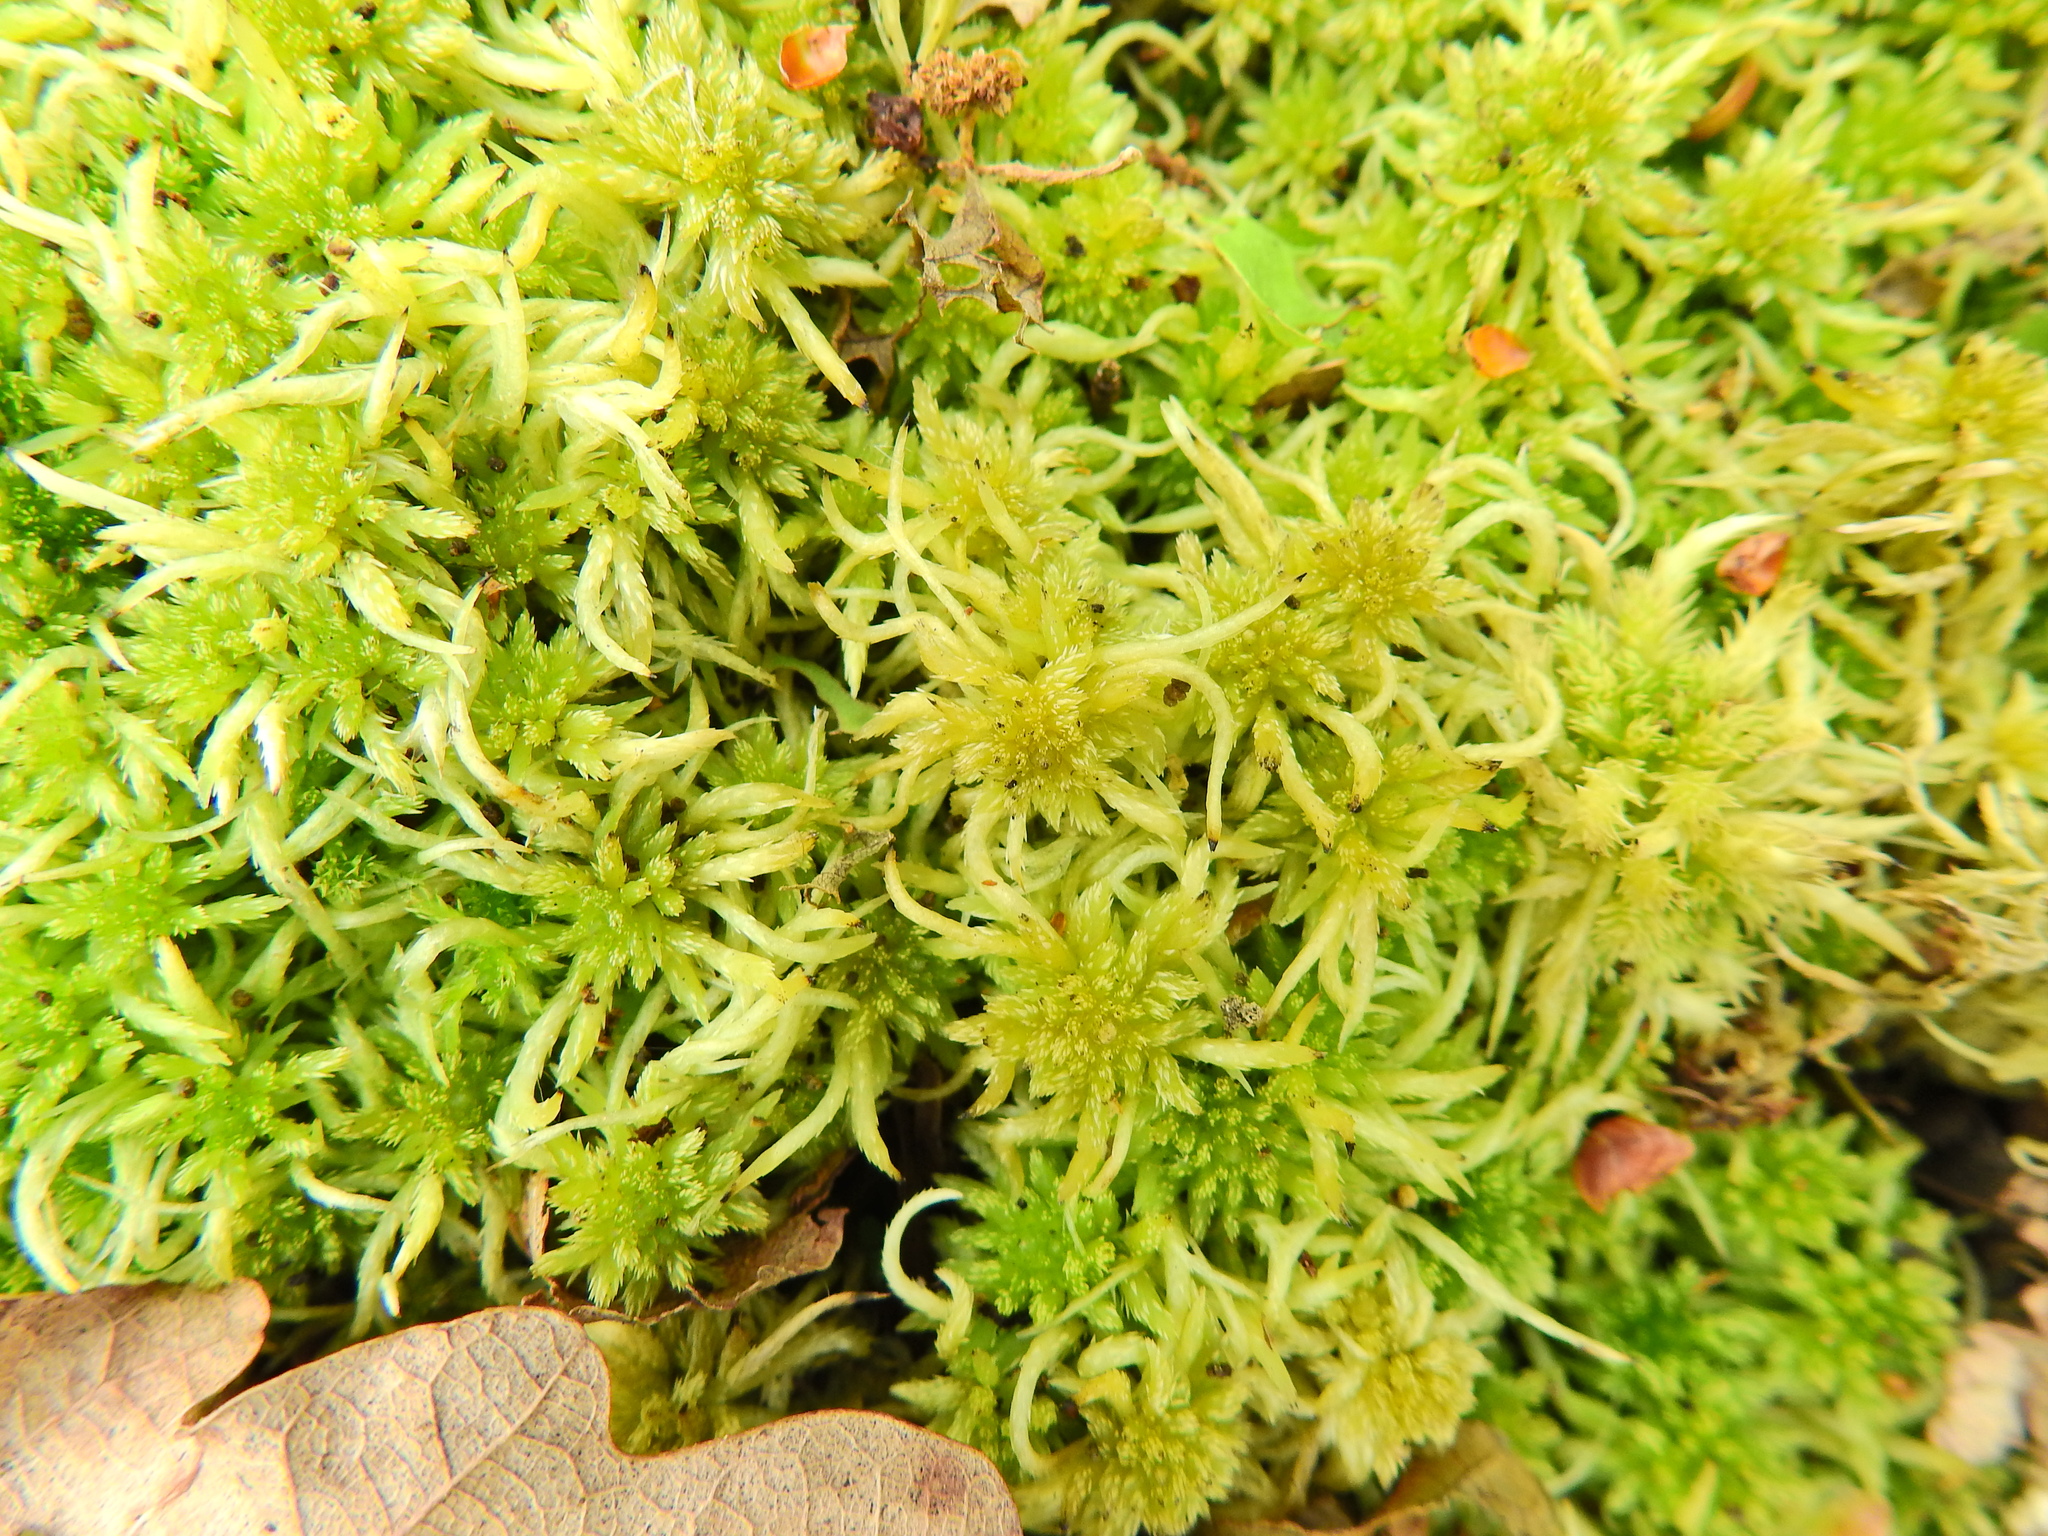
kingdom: Plantae
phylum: Bryophyta
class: Sphagnopsida
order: Sphagnales
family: Sphagnaceae
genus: Sphagnum
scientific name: Sphagnum squarrosum
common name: Shaggy peat moss
